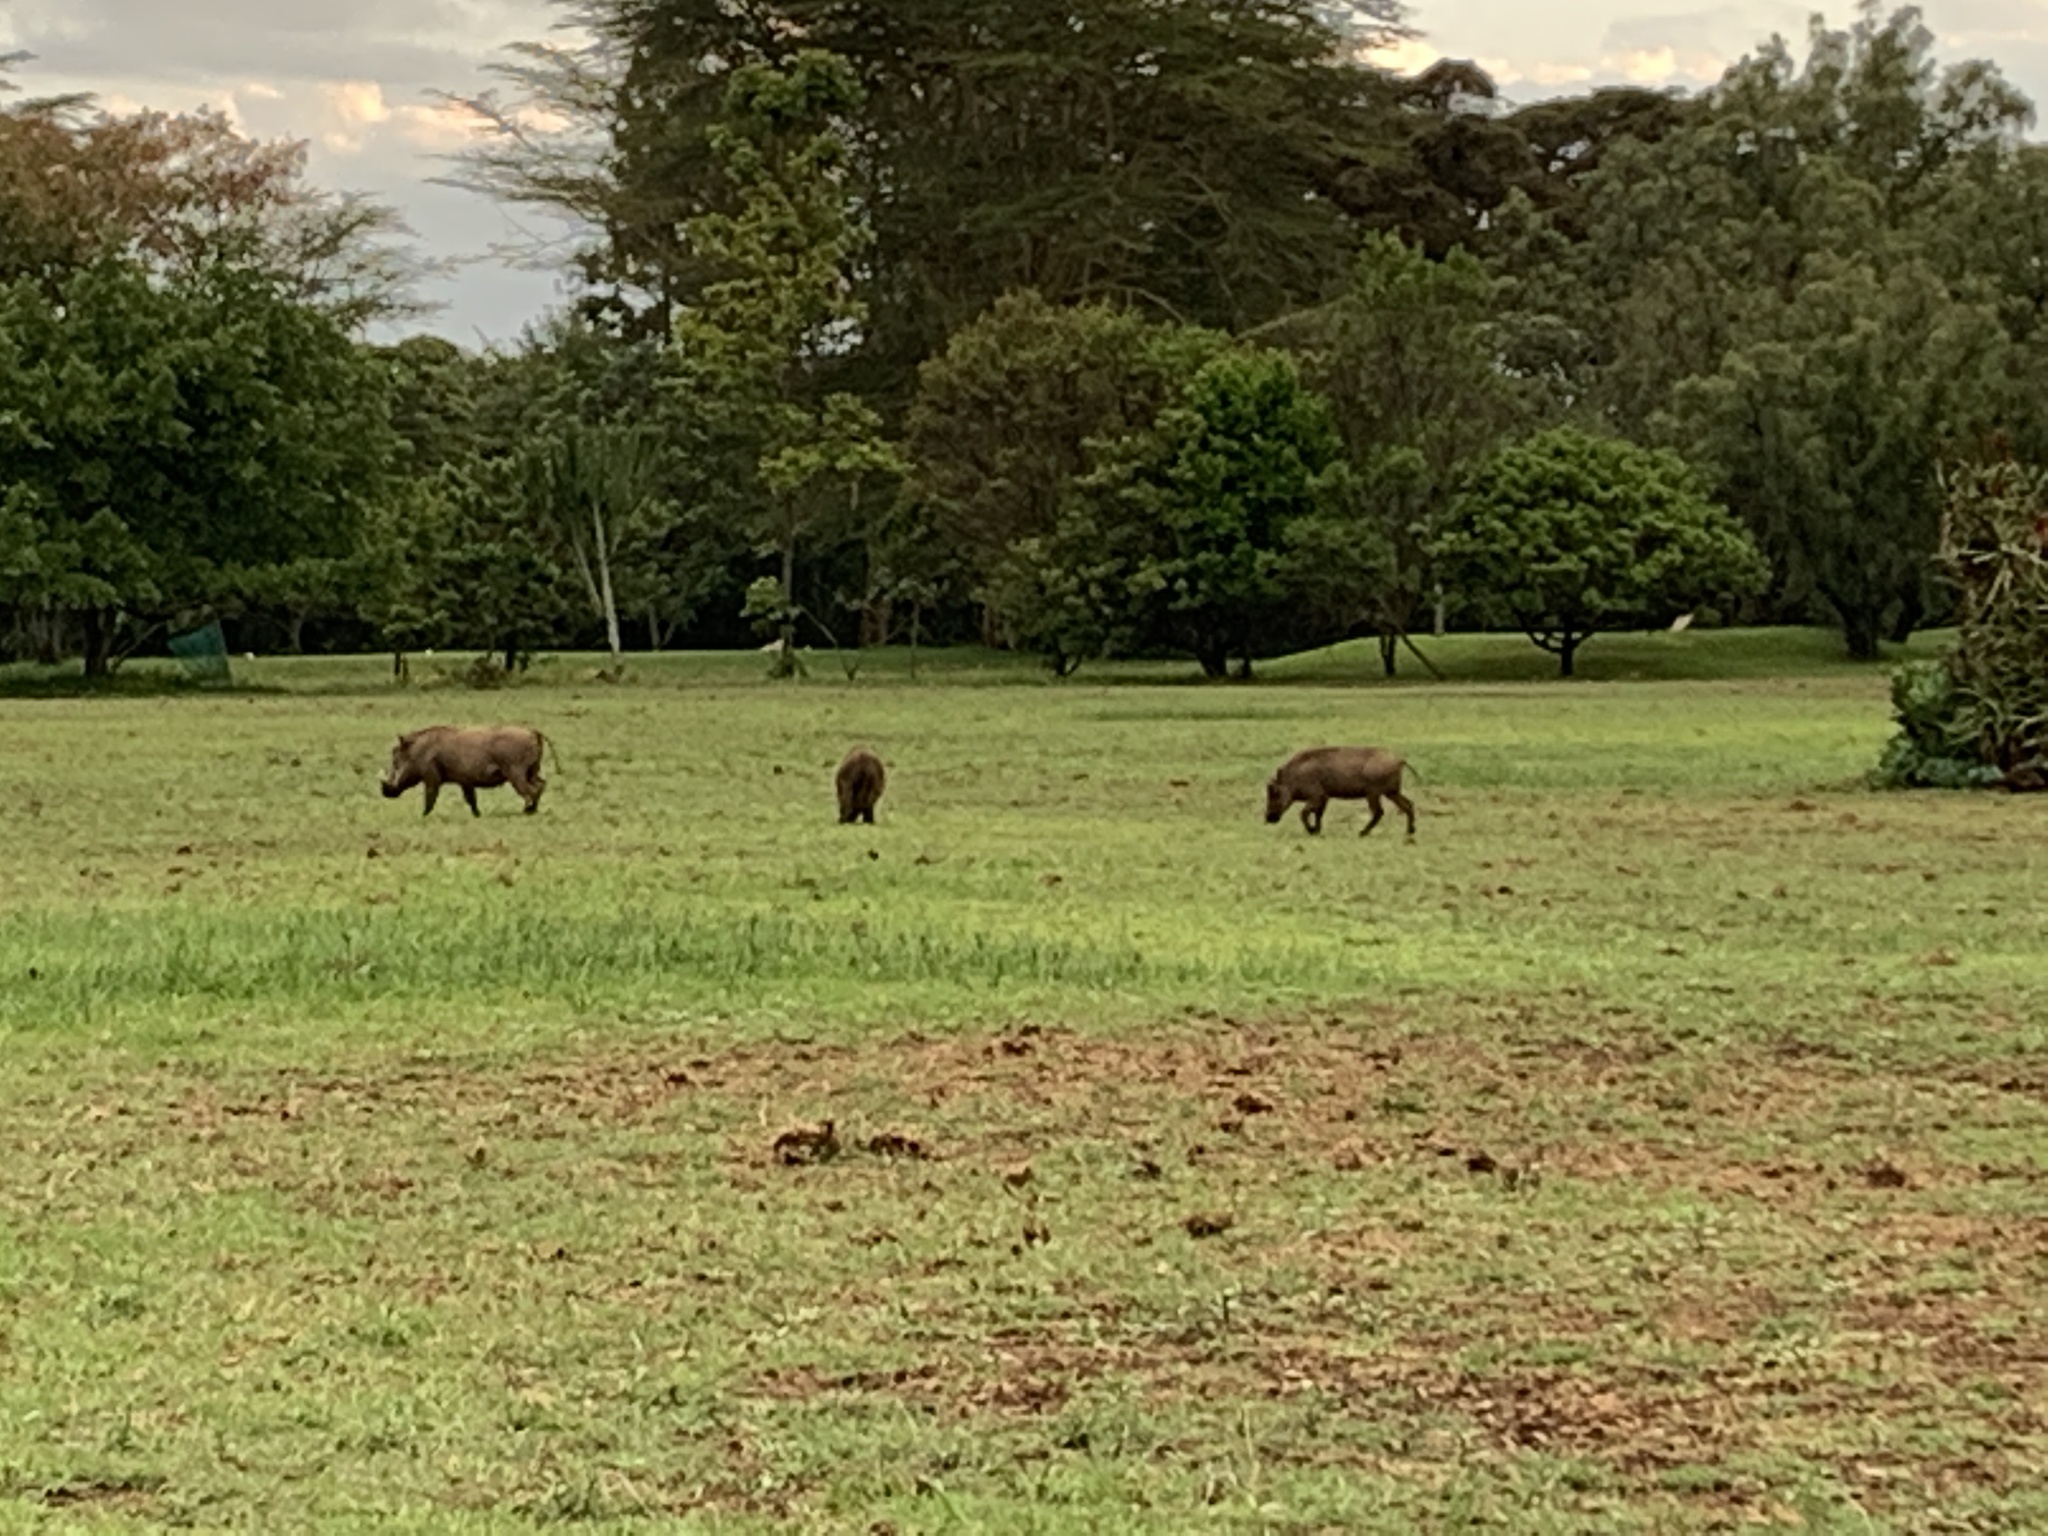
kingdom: Animalia
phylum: Chordata
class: Mammalia
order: Artiodactyla
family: Suidae
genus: Phacochoerus
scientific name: Phacochoerus africanus
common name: Common warthog
